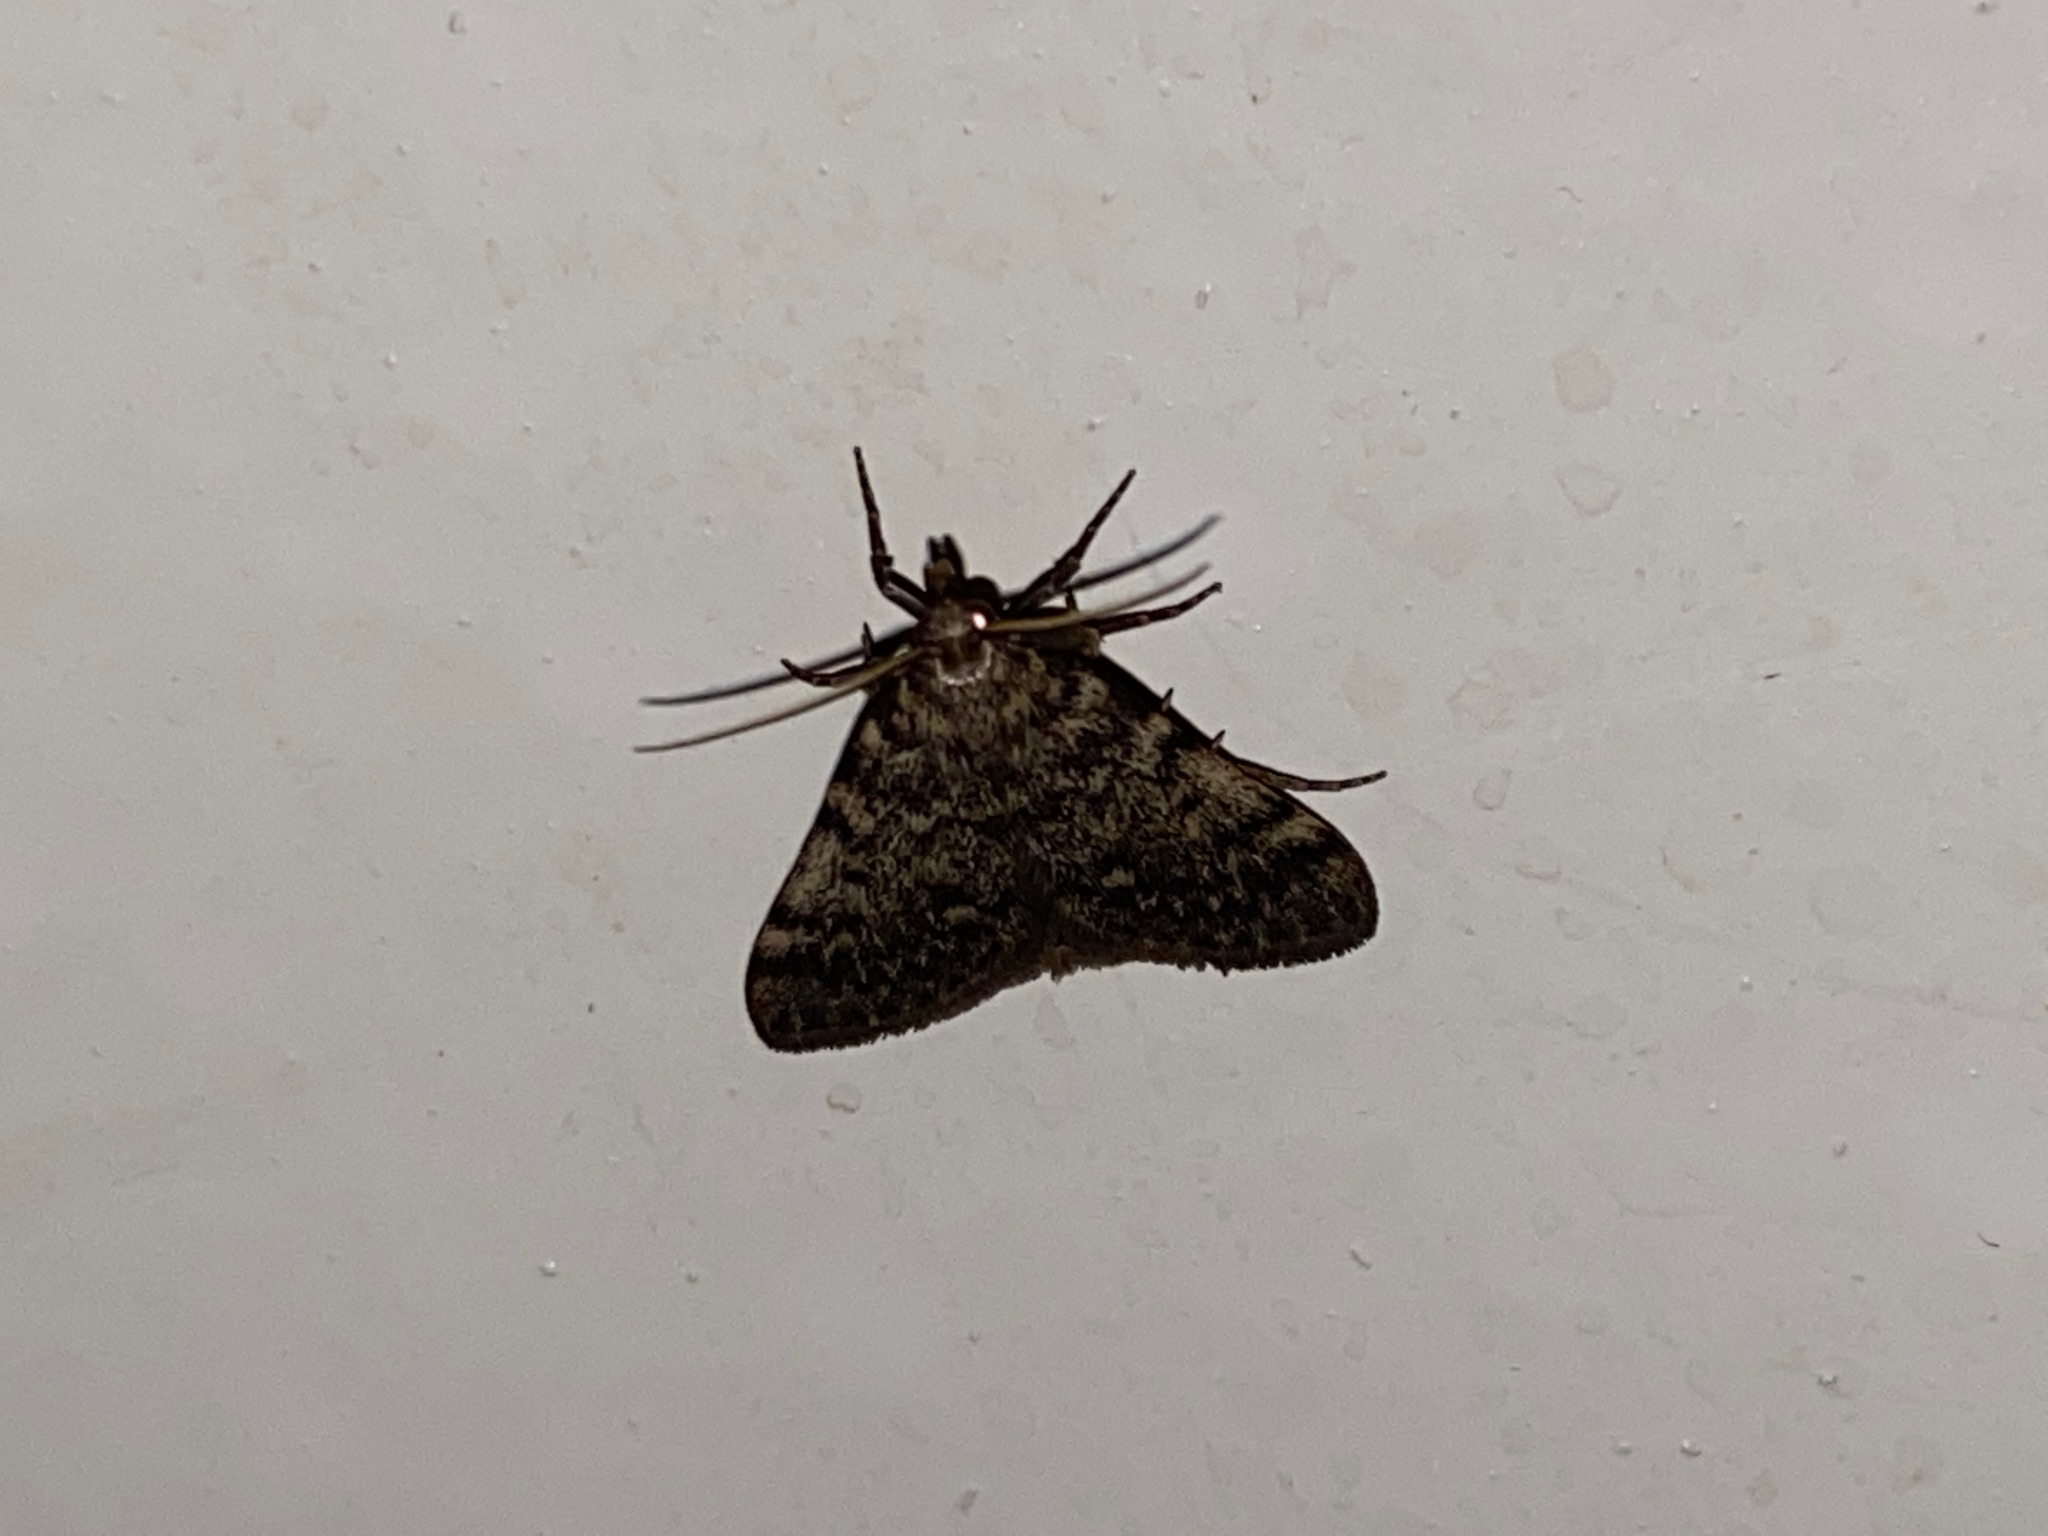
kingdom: Animalia
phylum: Arthropoda
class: Insecta
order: Lepidoptera
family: Pyralidae
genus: Aglossa
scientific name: Aglossa pinguinalis
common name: Large tabby
